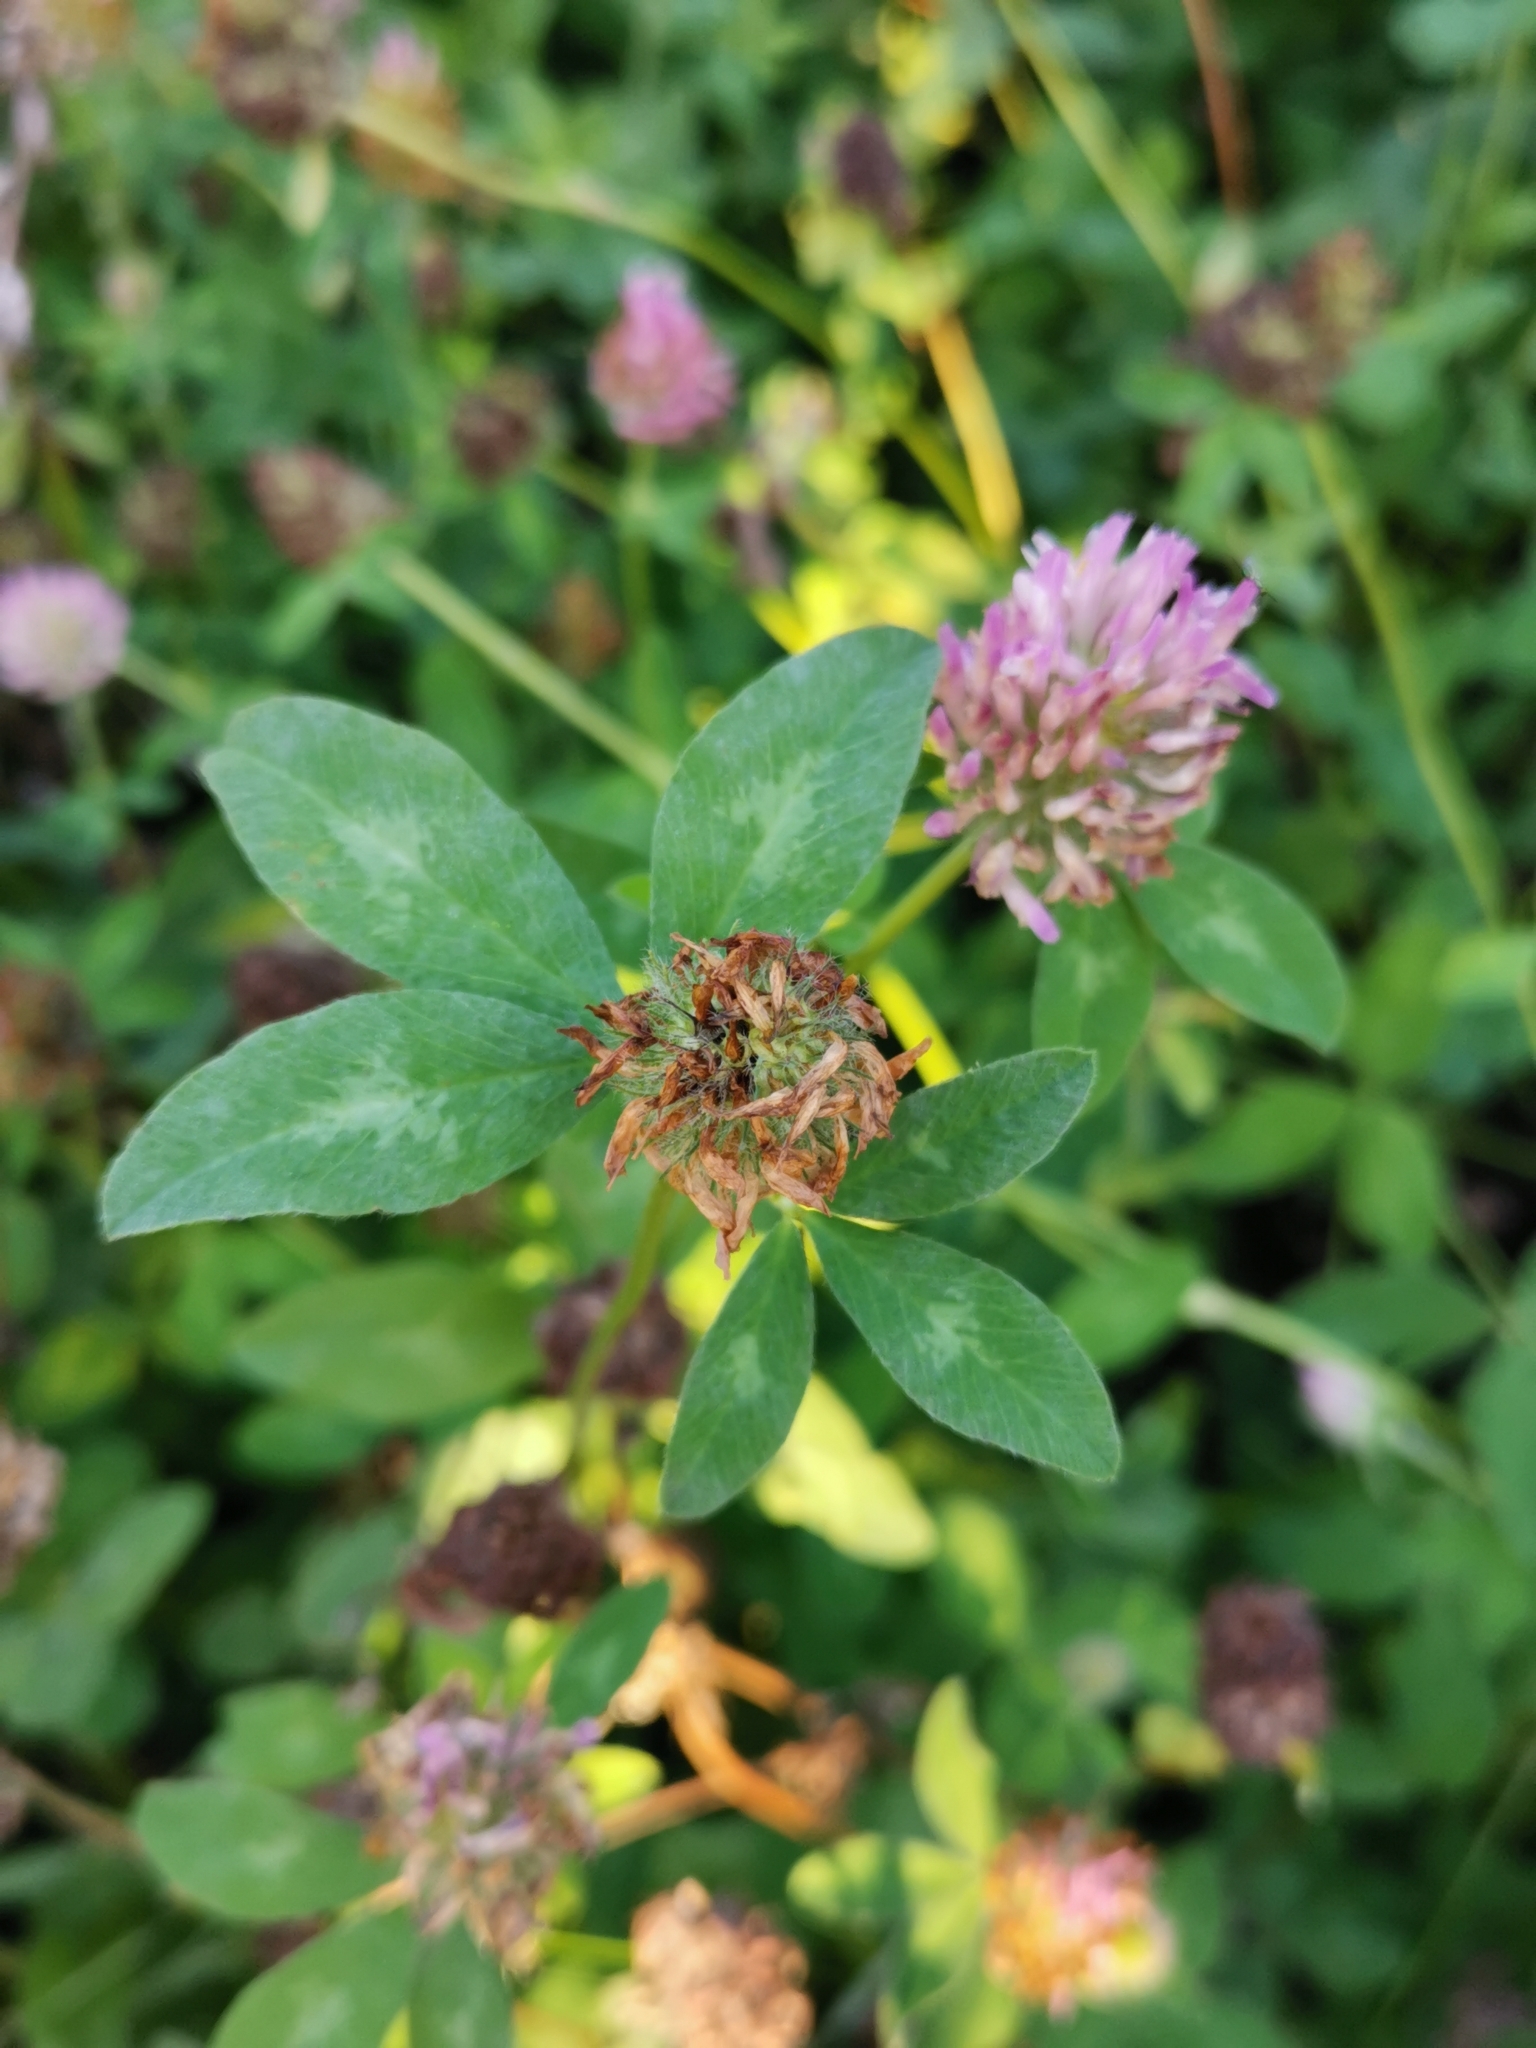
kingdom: Plantae
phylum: Tracheophyta
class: Magnoliopsida
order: Fabales
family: Fabaceae
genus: Trifolium
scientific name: Trifolium pratense
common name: Red clover
